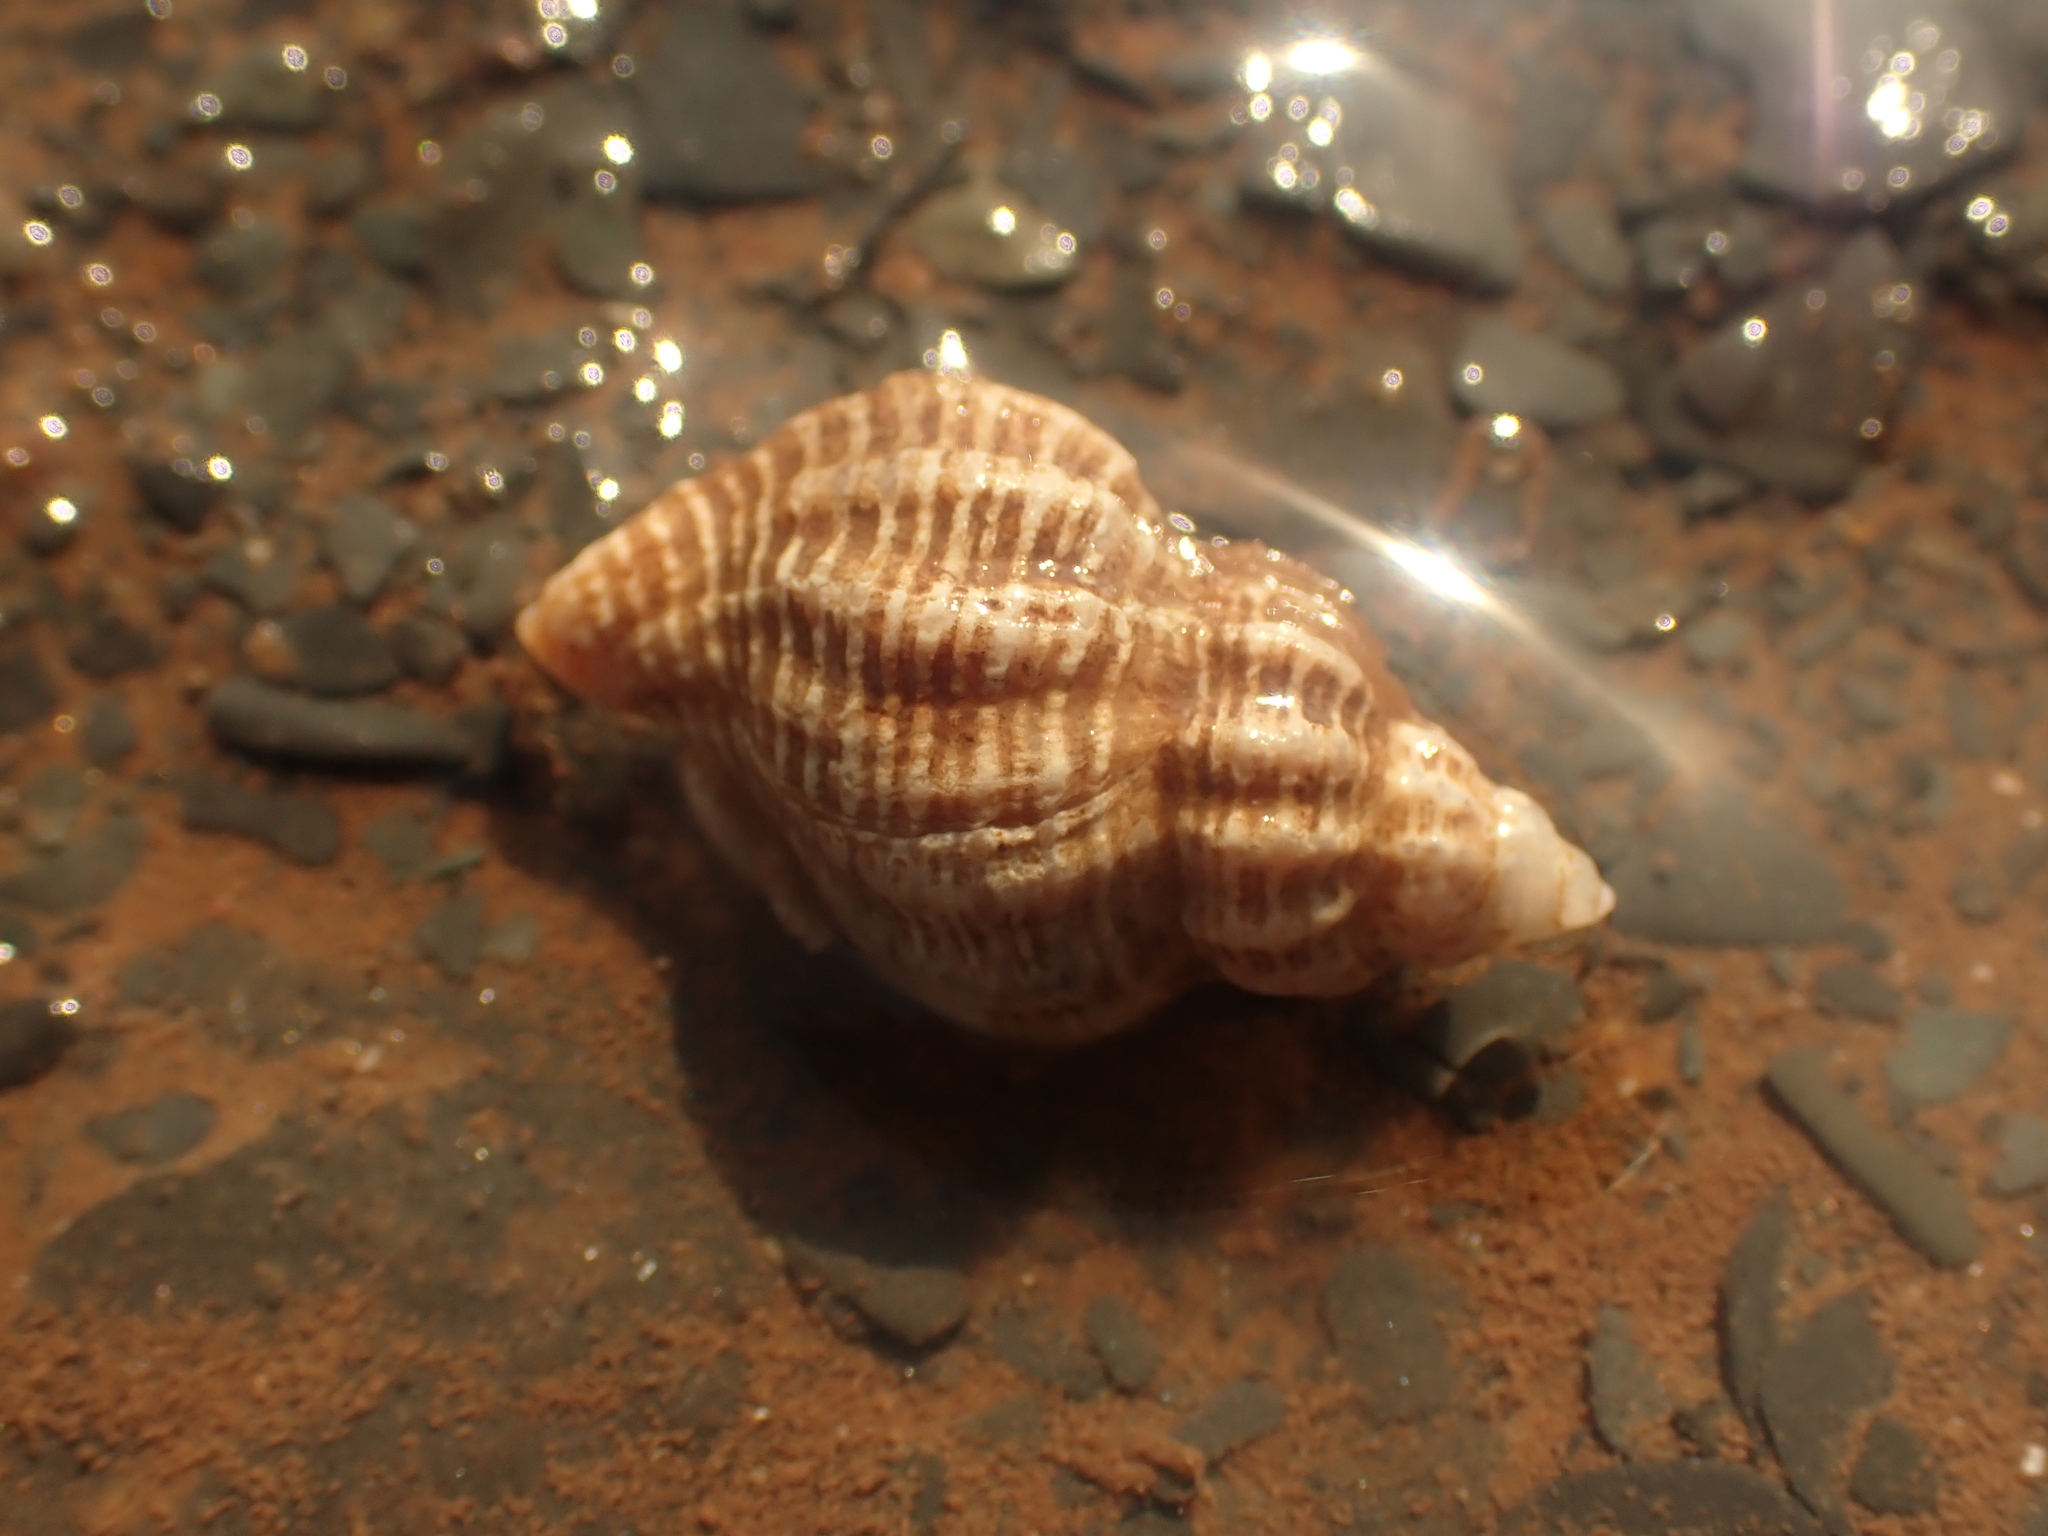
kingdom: Animalia
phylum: Mollusca
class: Gastropoda
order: Neogastropoda
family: Muricidae
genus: Urosalpinx
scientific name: Urosalpinx cinerea
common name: American sting winkle
